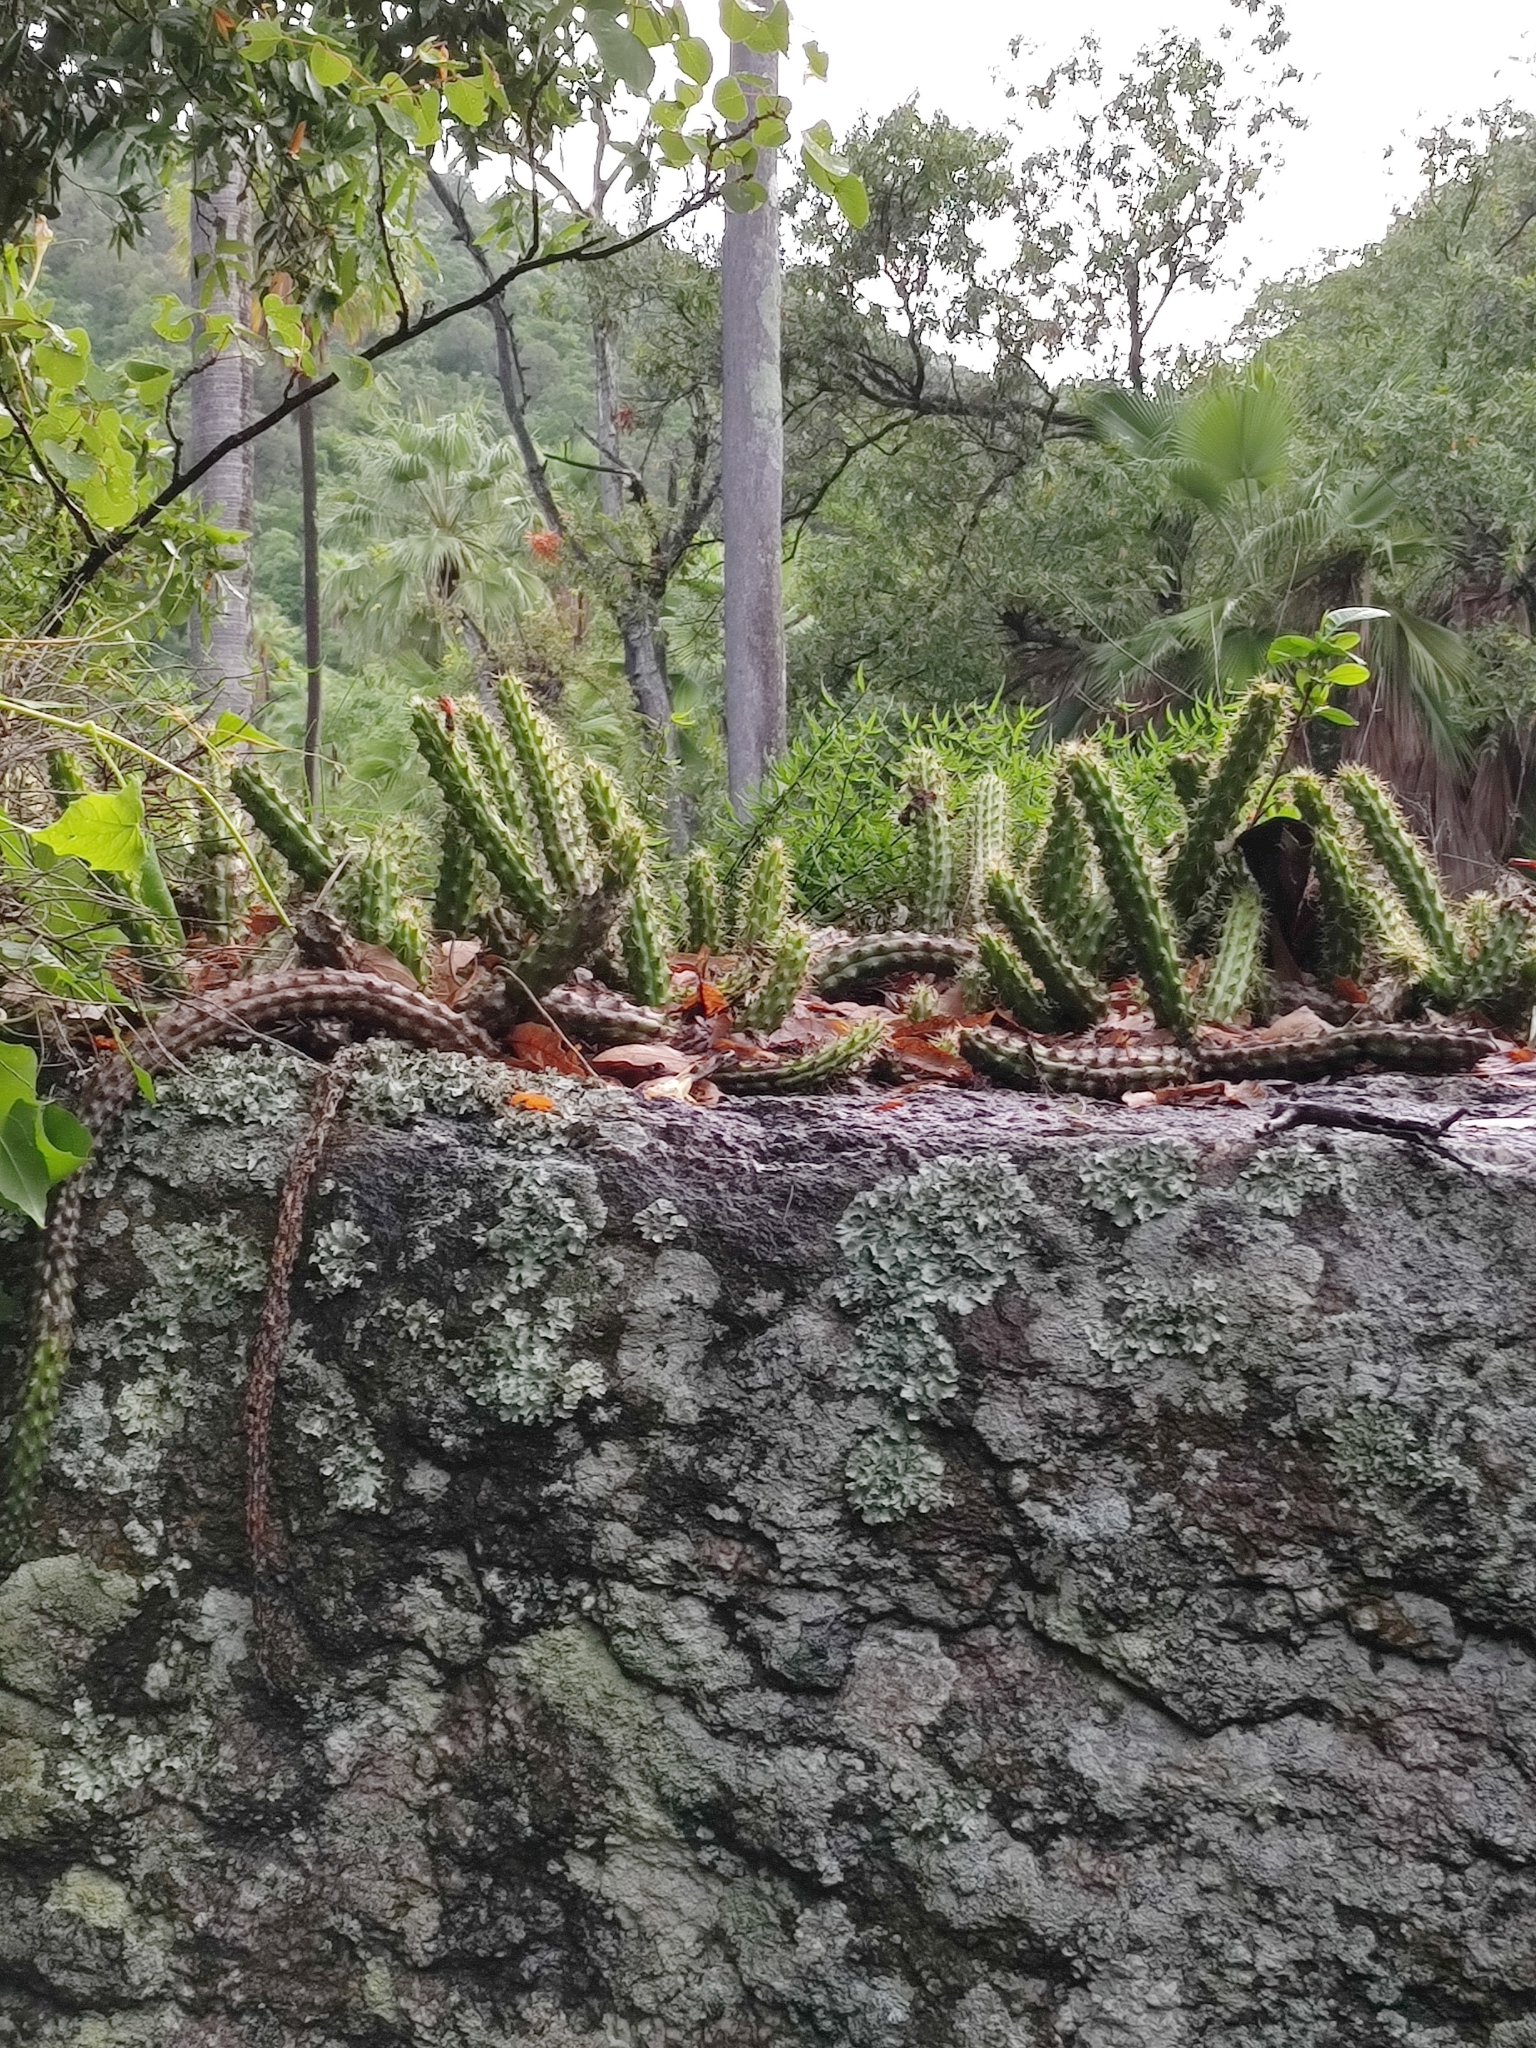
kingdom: Plantae
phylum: Tracheophyta
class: Magnoliopsida
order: Caryophyllales
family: Cactaceae
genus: Echinocereus
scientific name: Echinocereus pensilis
